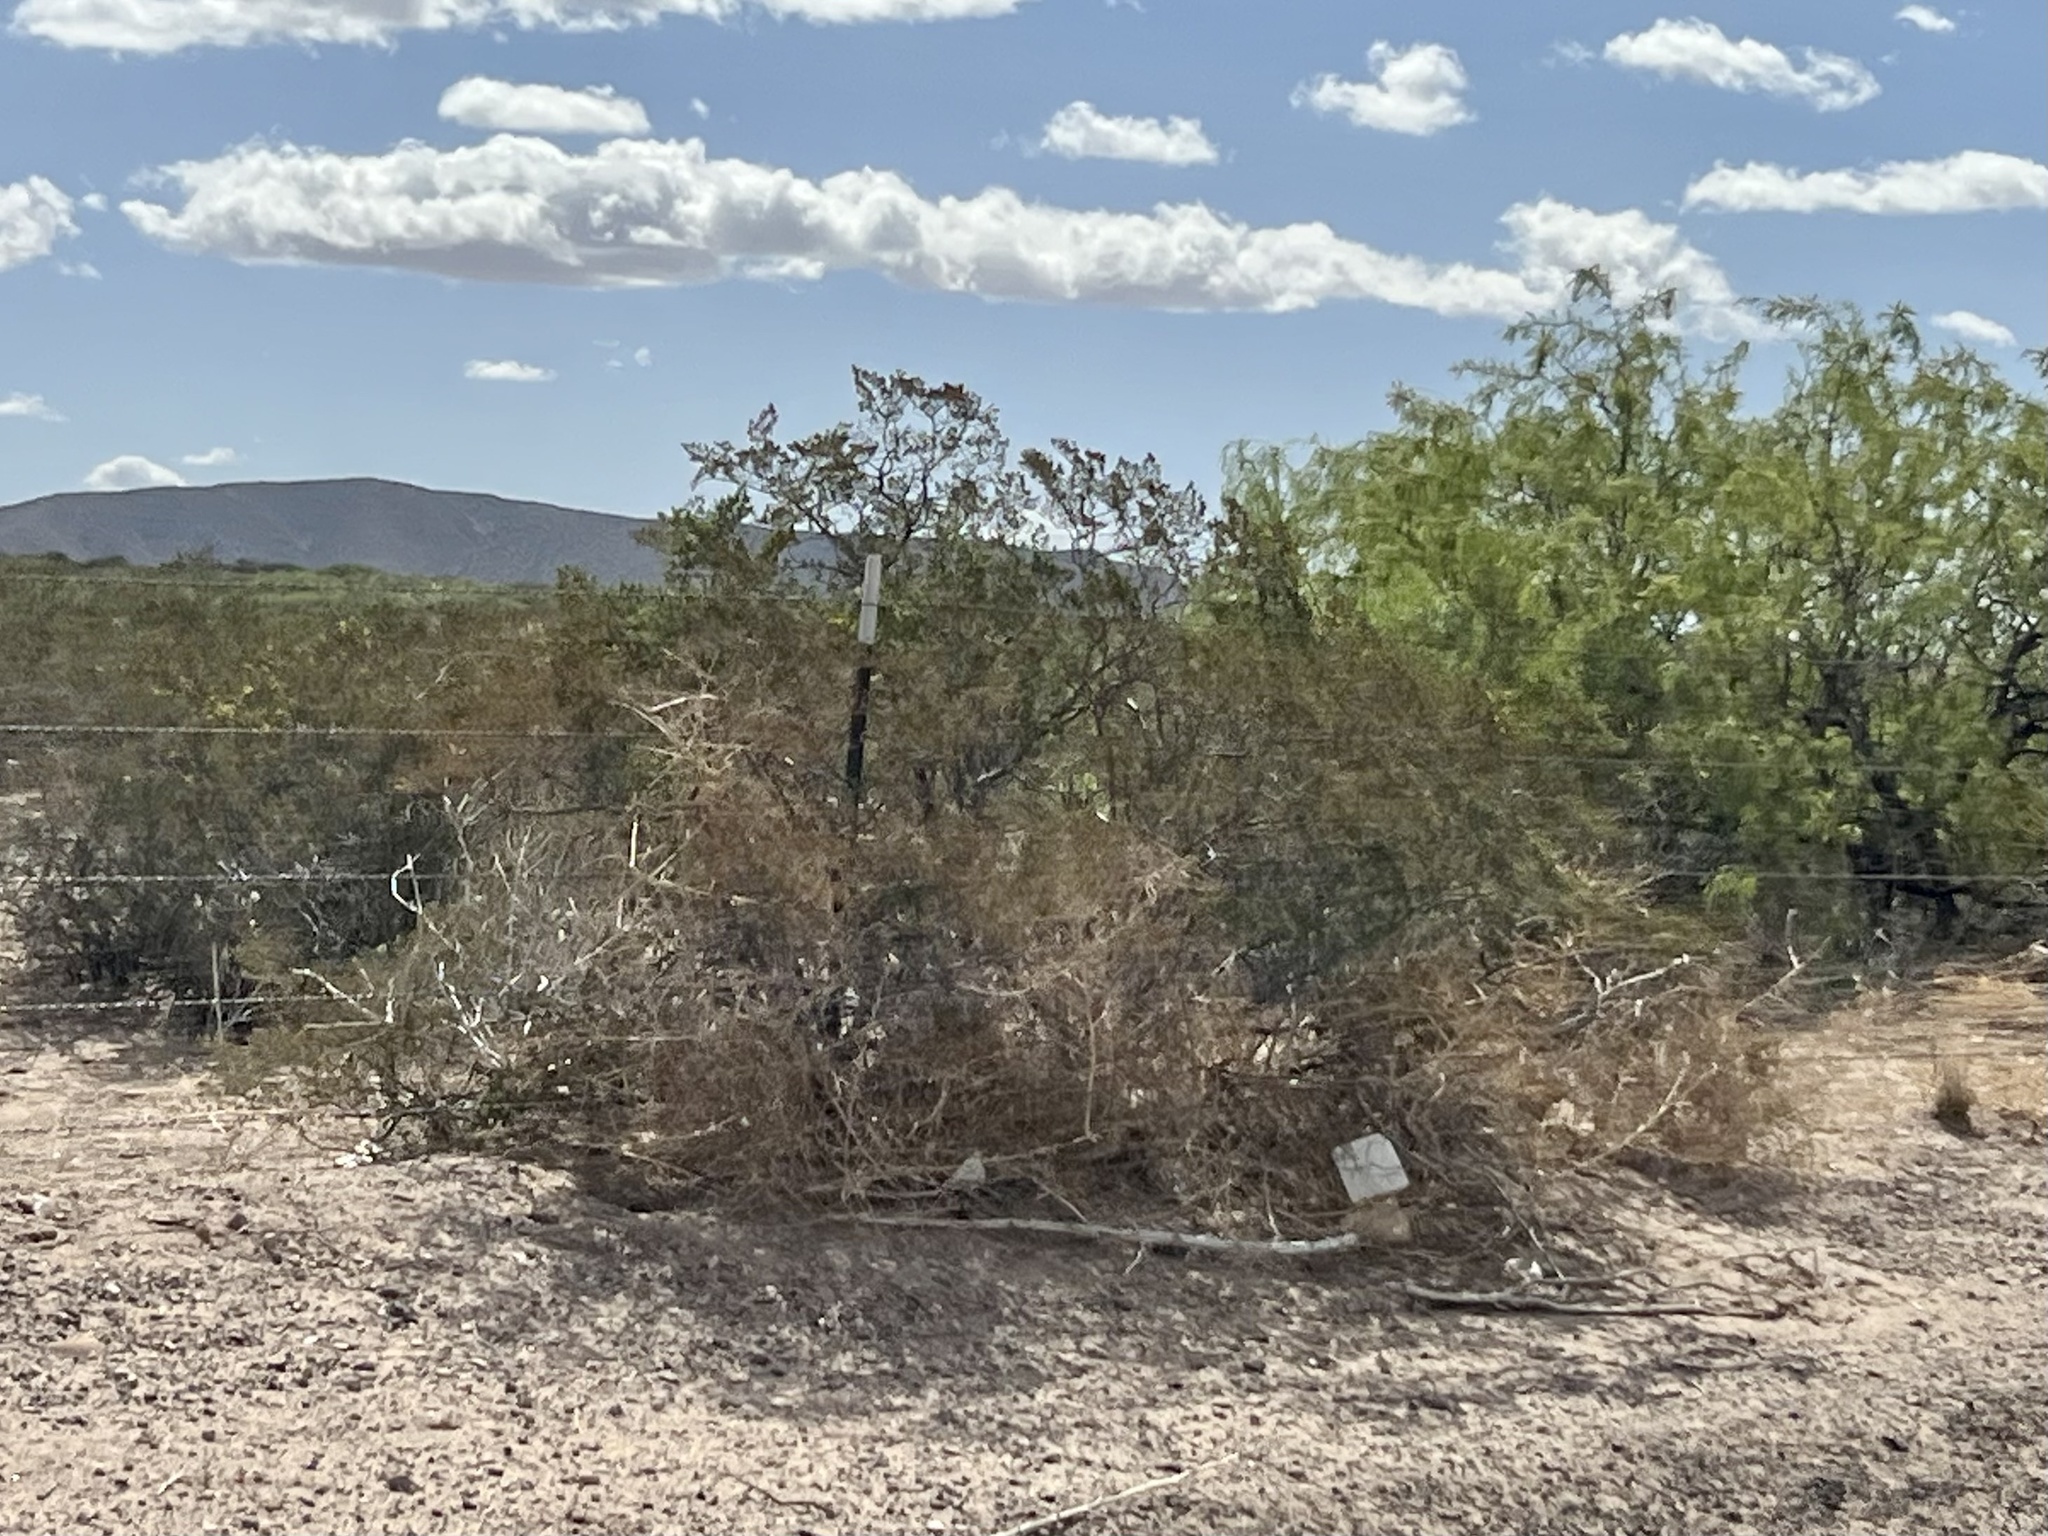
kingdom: Plantae
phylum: Tracheophyta
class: Magnoliopsida
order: Zygophyllales
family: Zygophyllaceae
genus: Larrea
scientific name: Larrea tridentata
